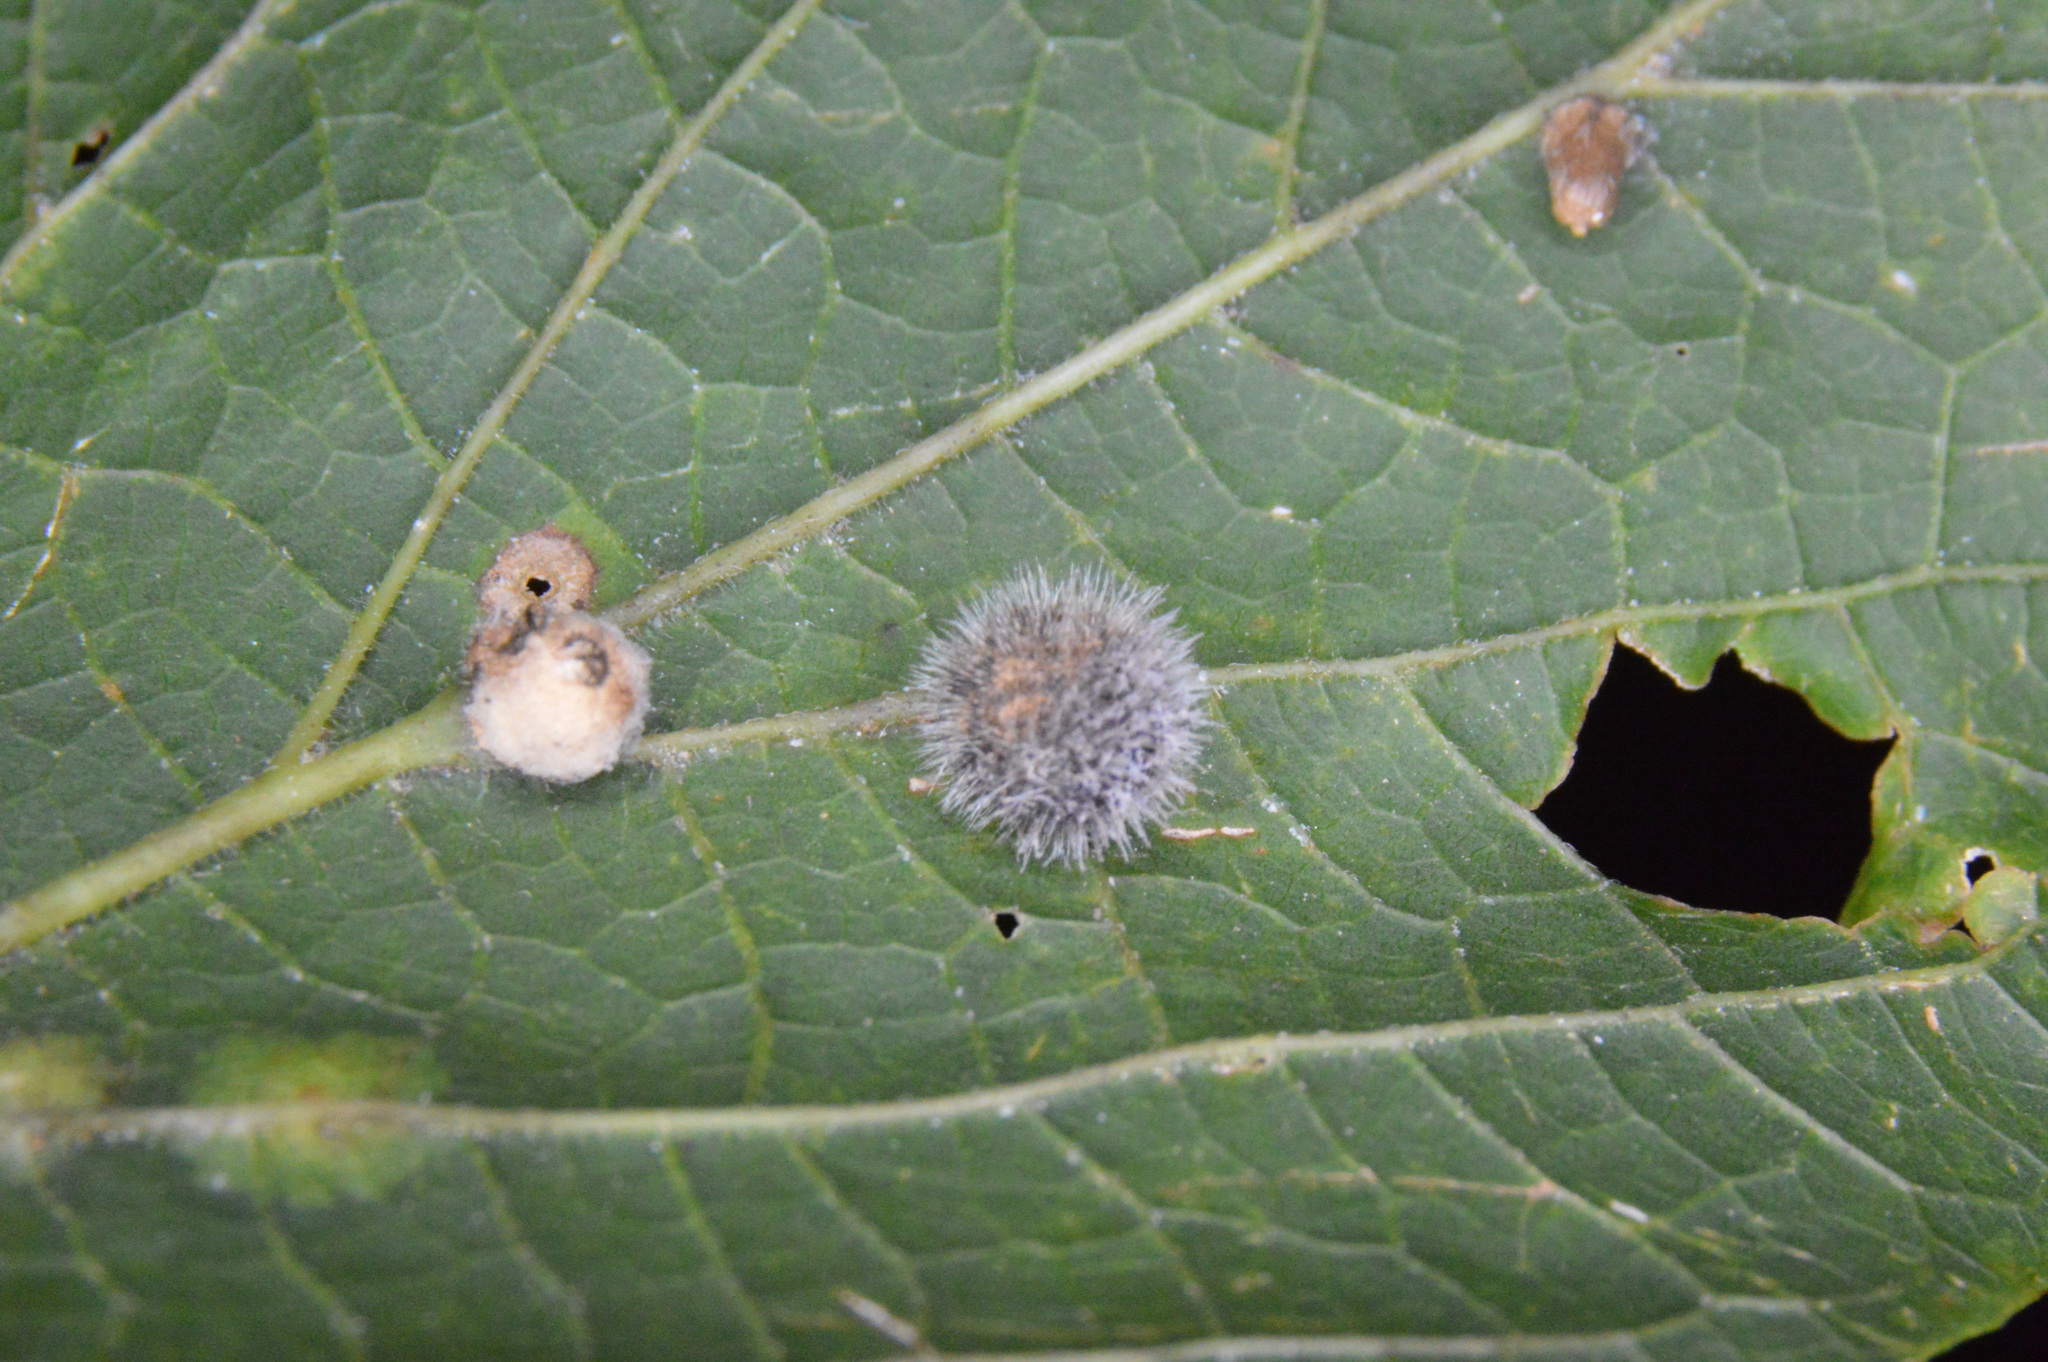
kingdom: Animalia
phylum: Arthropoda
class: Insecta
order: Diptera
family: Cecidomyiidae
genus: Celticecis
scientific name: Celticecis pubescens
